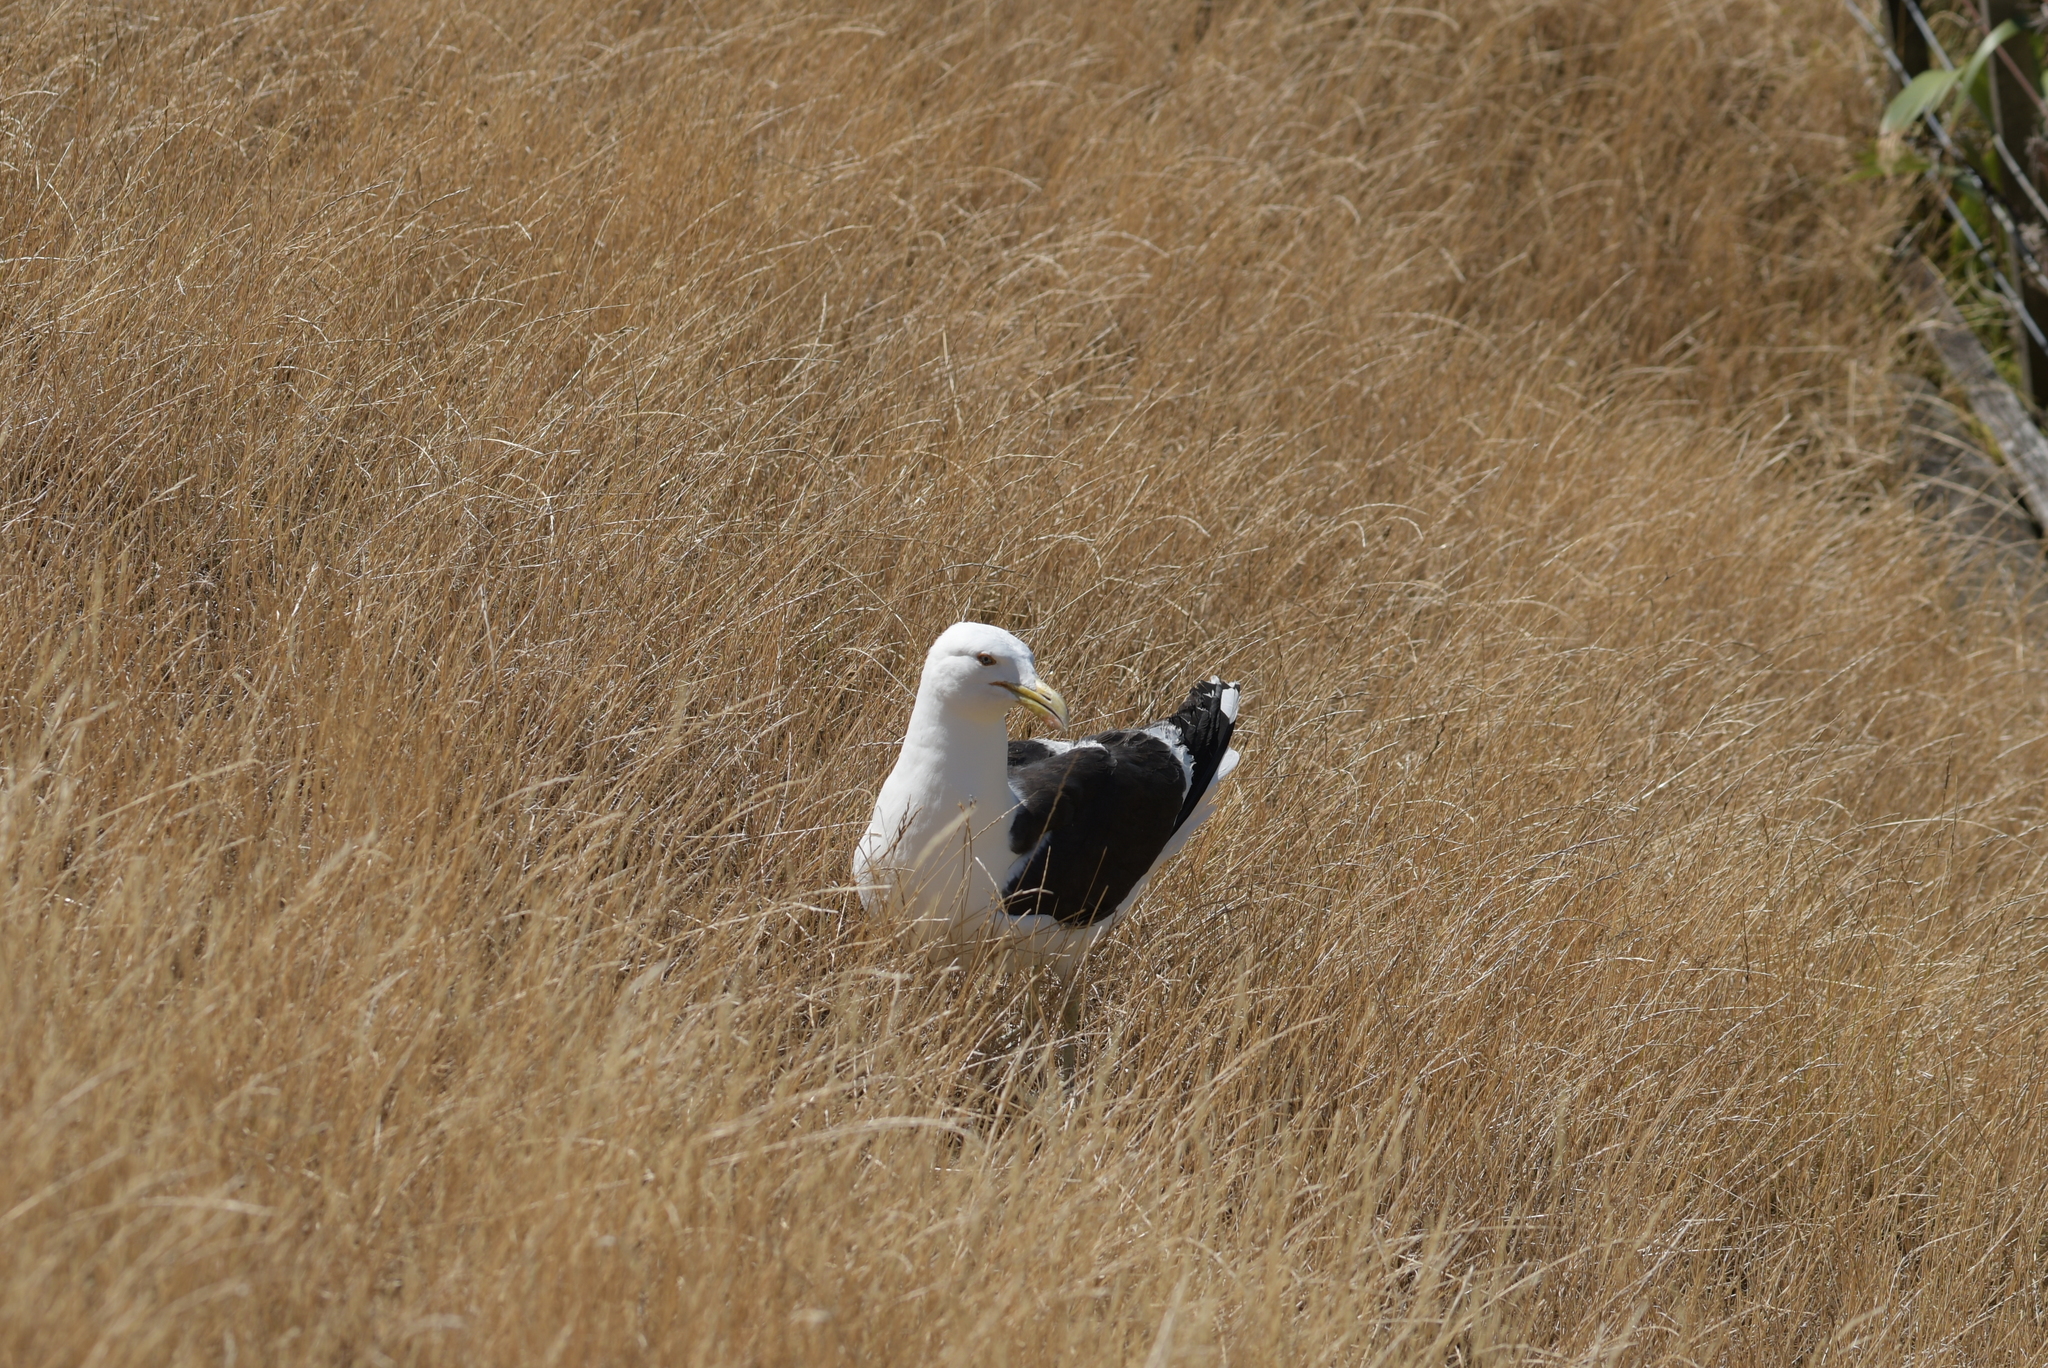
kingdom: Animalia
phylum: Chordata
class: Aves
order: Charadriiformes
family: Laridae
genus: Larus
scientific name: Larus dominicanus
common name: Kelp gull
